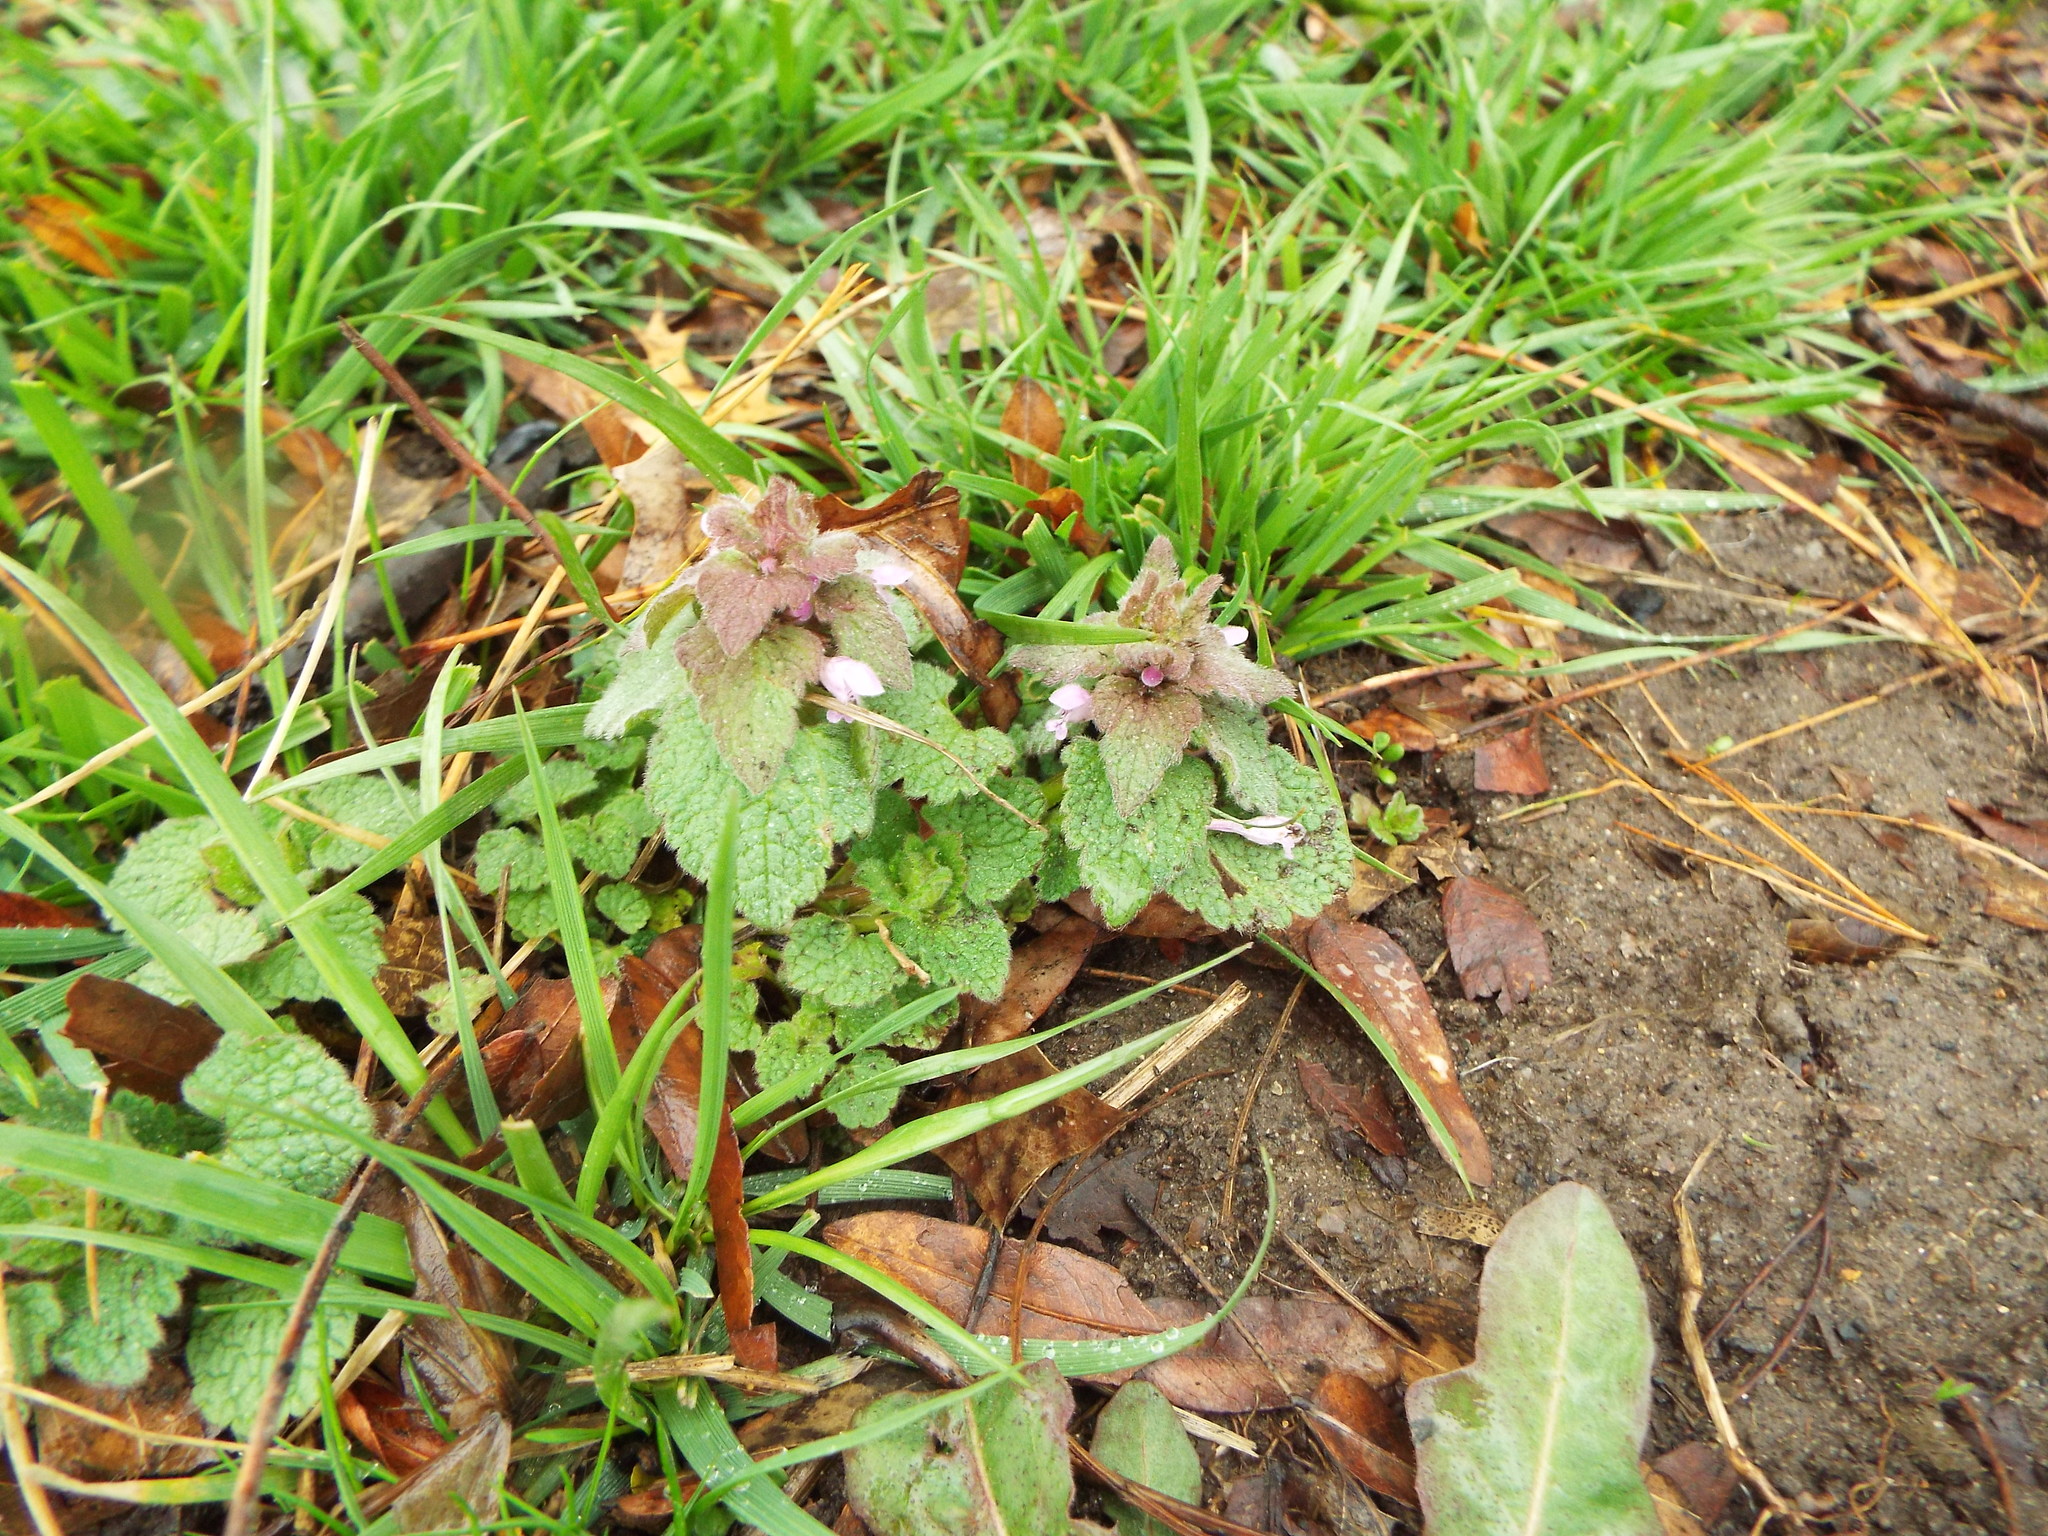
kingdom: Plantae
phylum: Tracheophyta
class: Magnoliopsida
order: Lamiales
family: Lamiaceae
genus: Lamium
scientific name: Lamium purpureum
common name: Red dead-nettle
